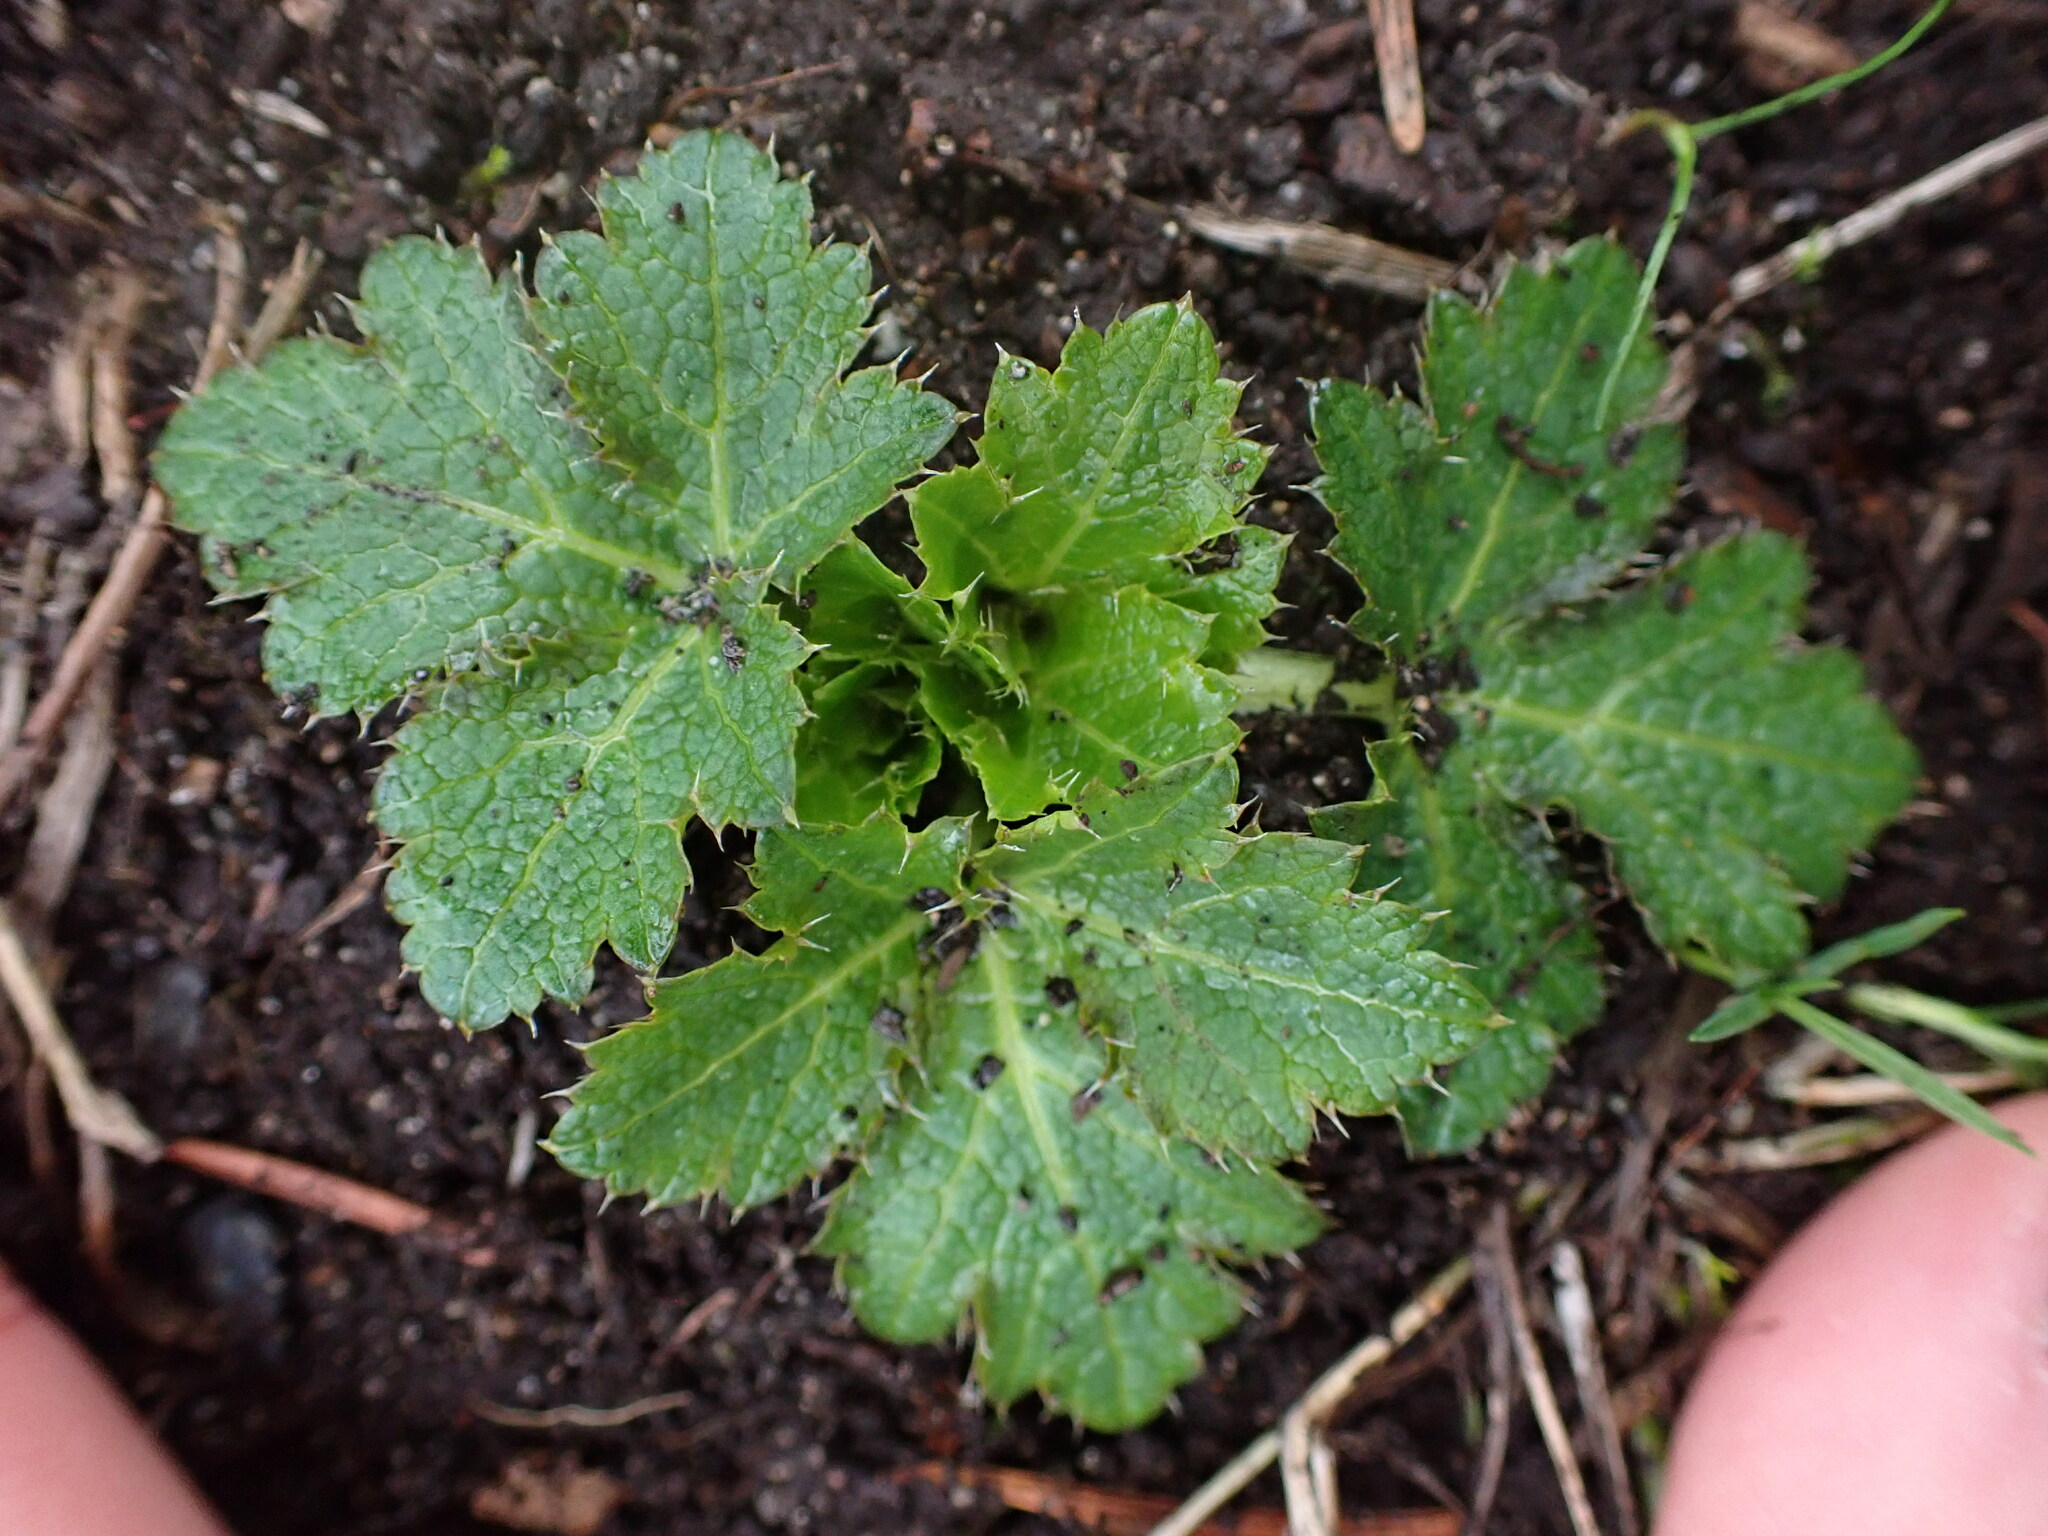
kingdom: Plantae
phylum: Tracheophyta
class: Magnoliopsida
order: Apiales
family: Apiaceae
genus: Sanicula
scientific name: Sanicula crassicaulis
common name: Western snakeroot
